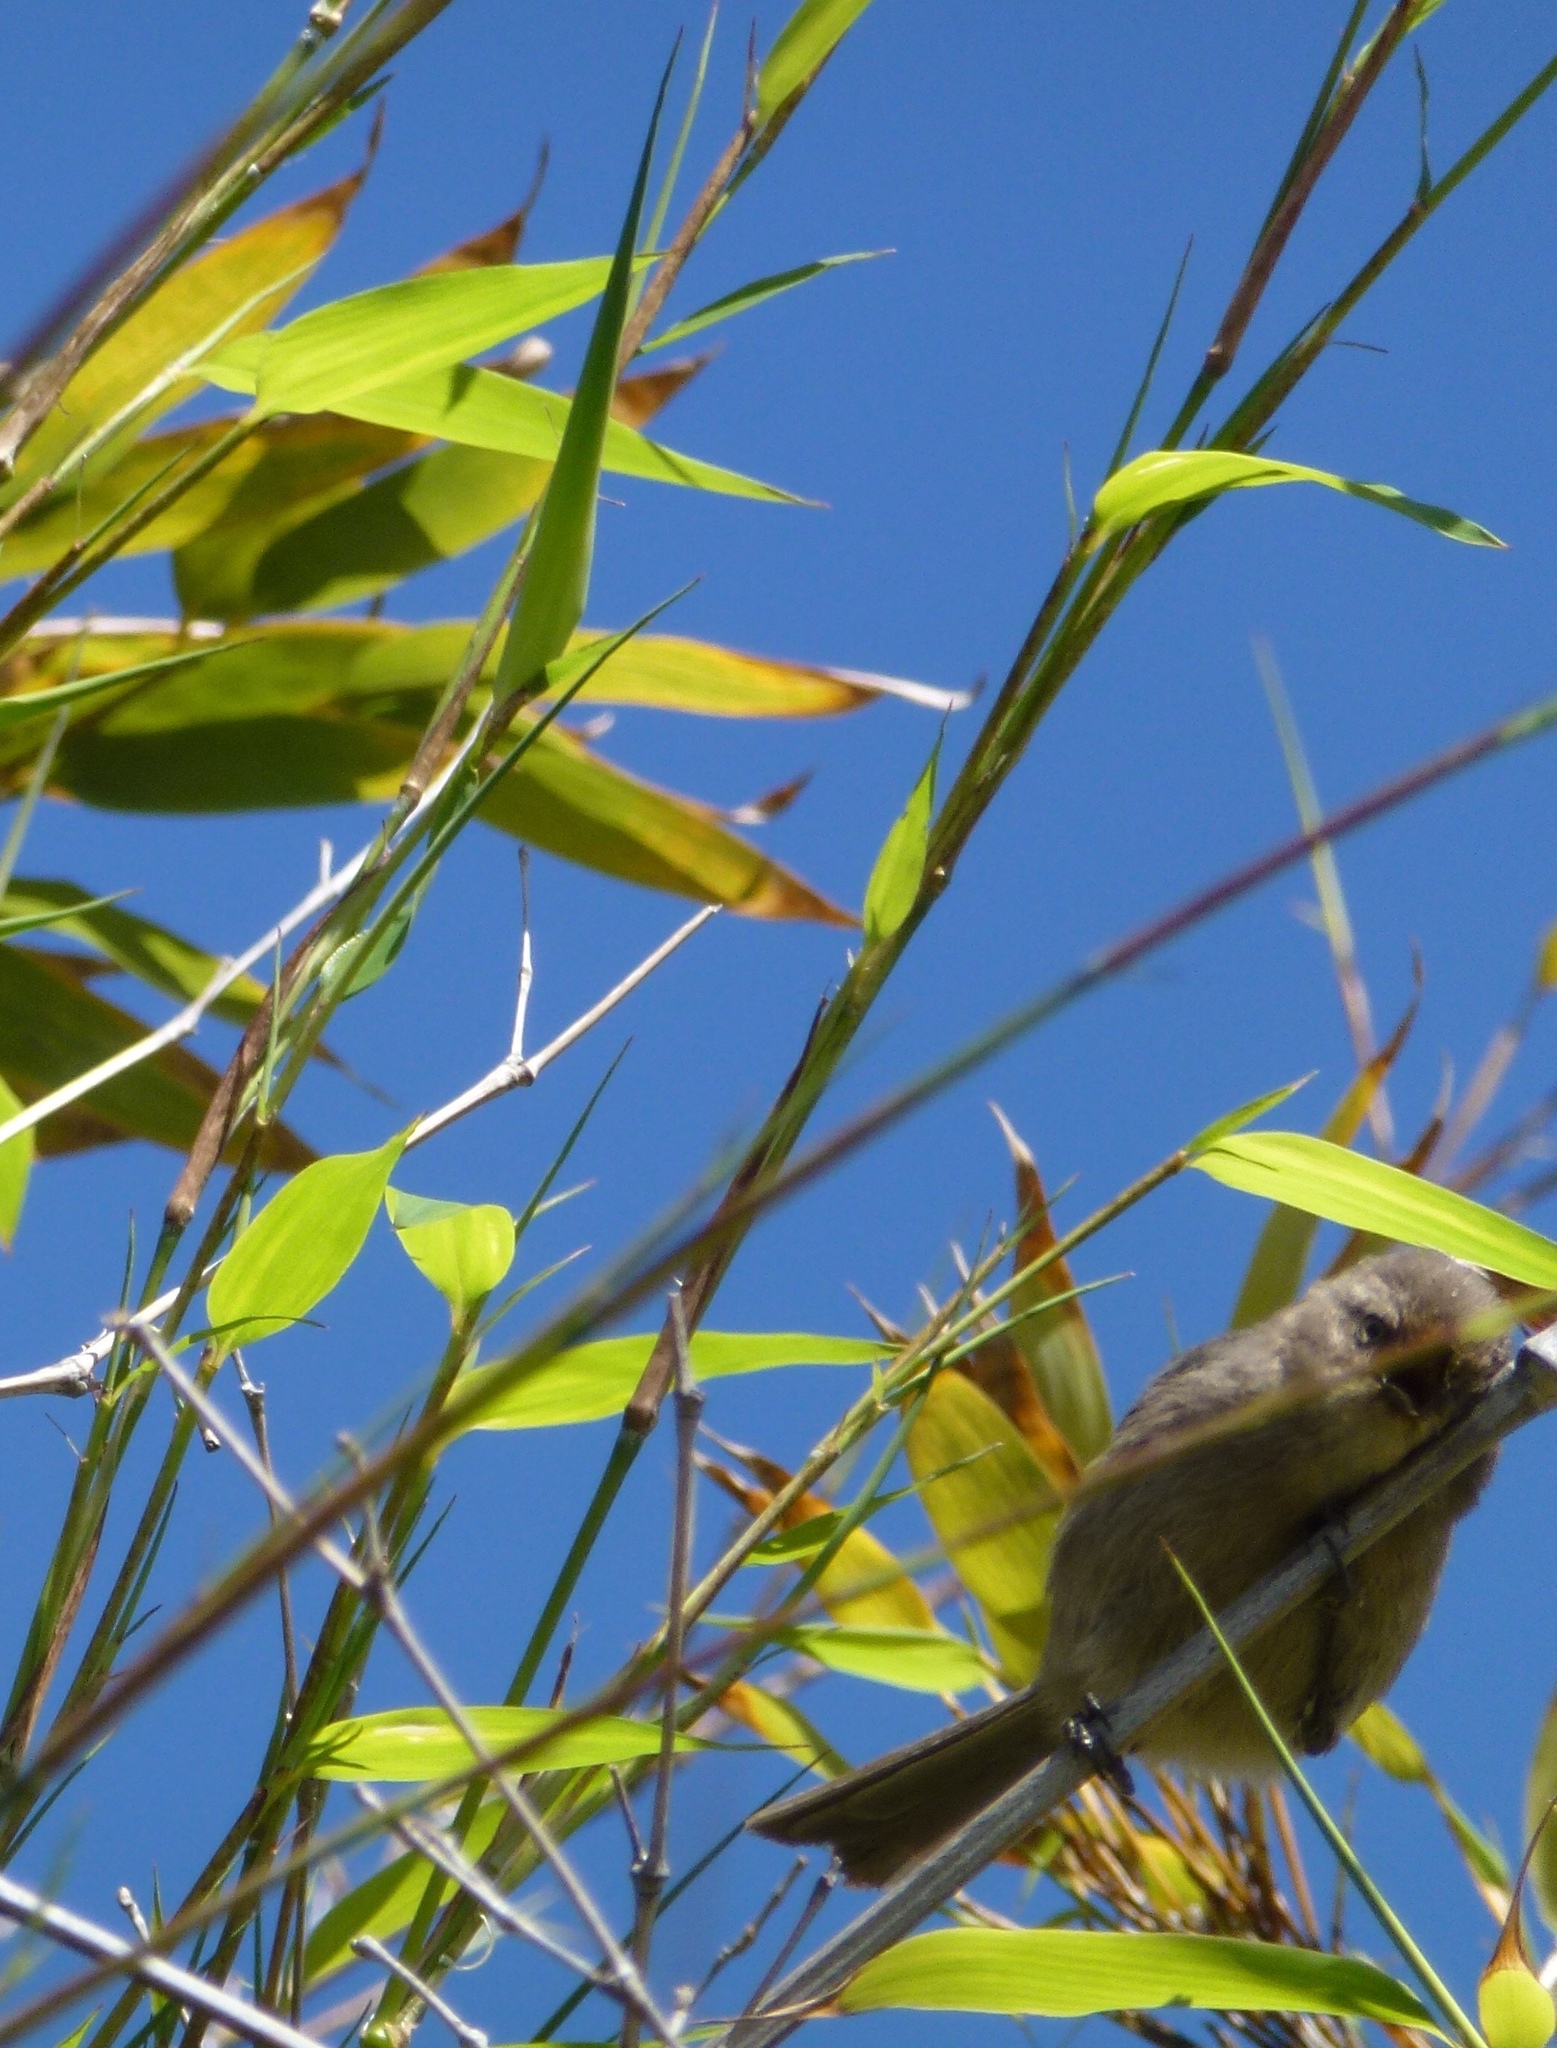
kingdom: Animalia
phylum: Chordata
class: Aves
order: Passeriformes
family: Aegithalidae
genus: Psaltriparus
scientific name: Psaltriparus minimus
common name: American bushtit
